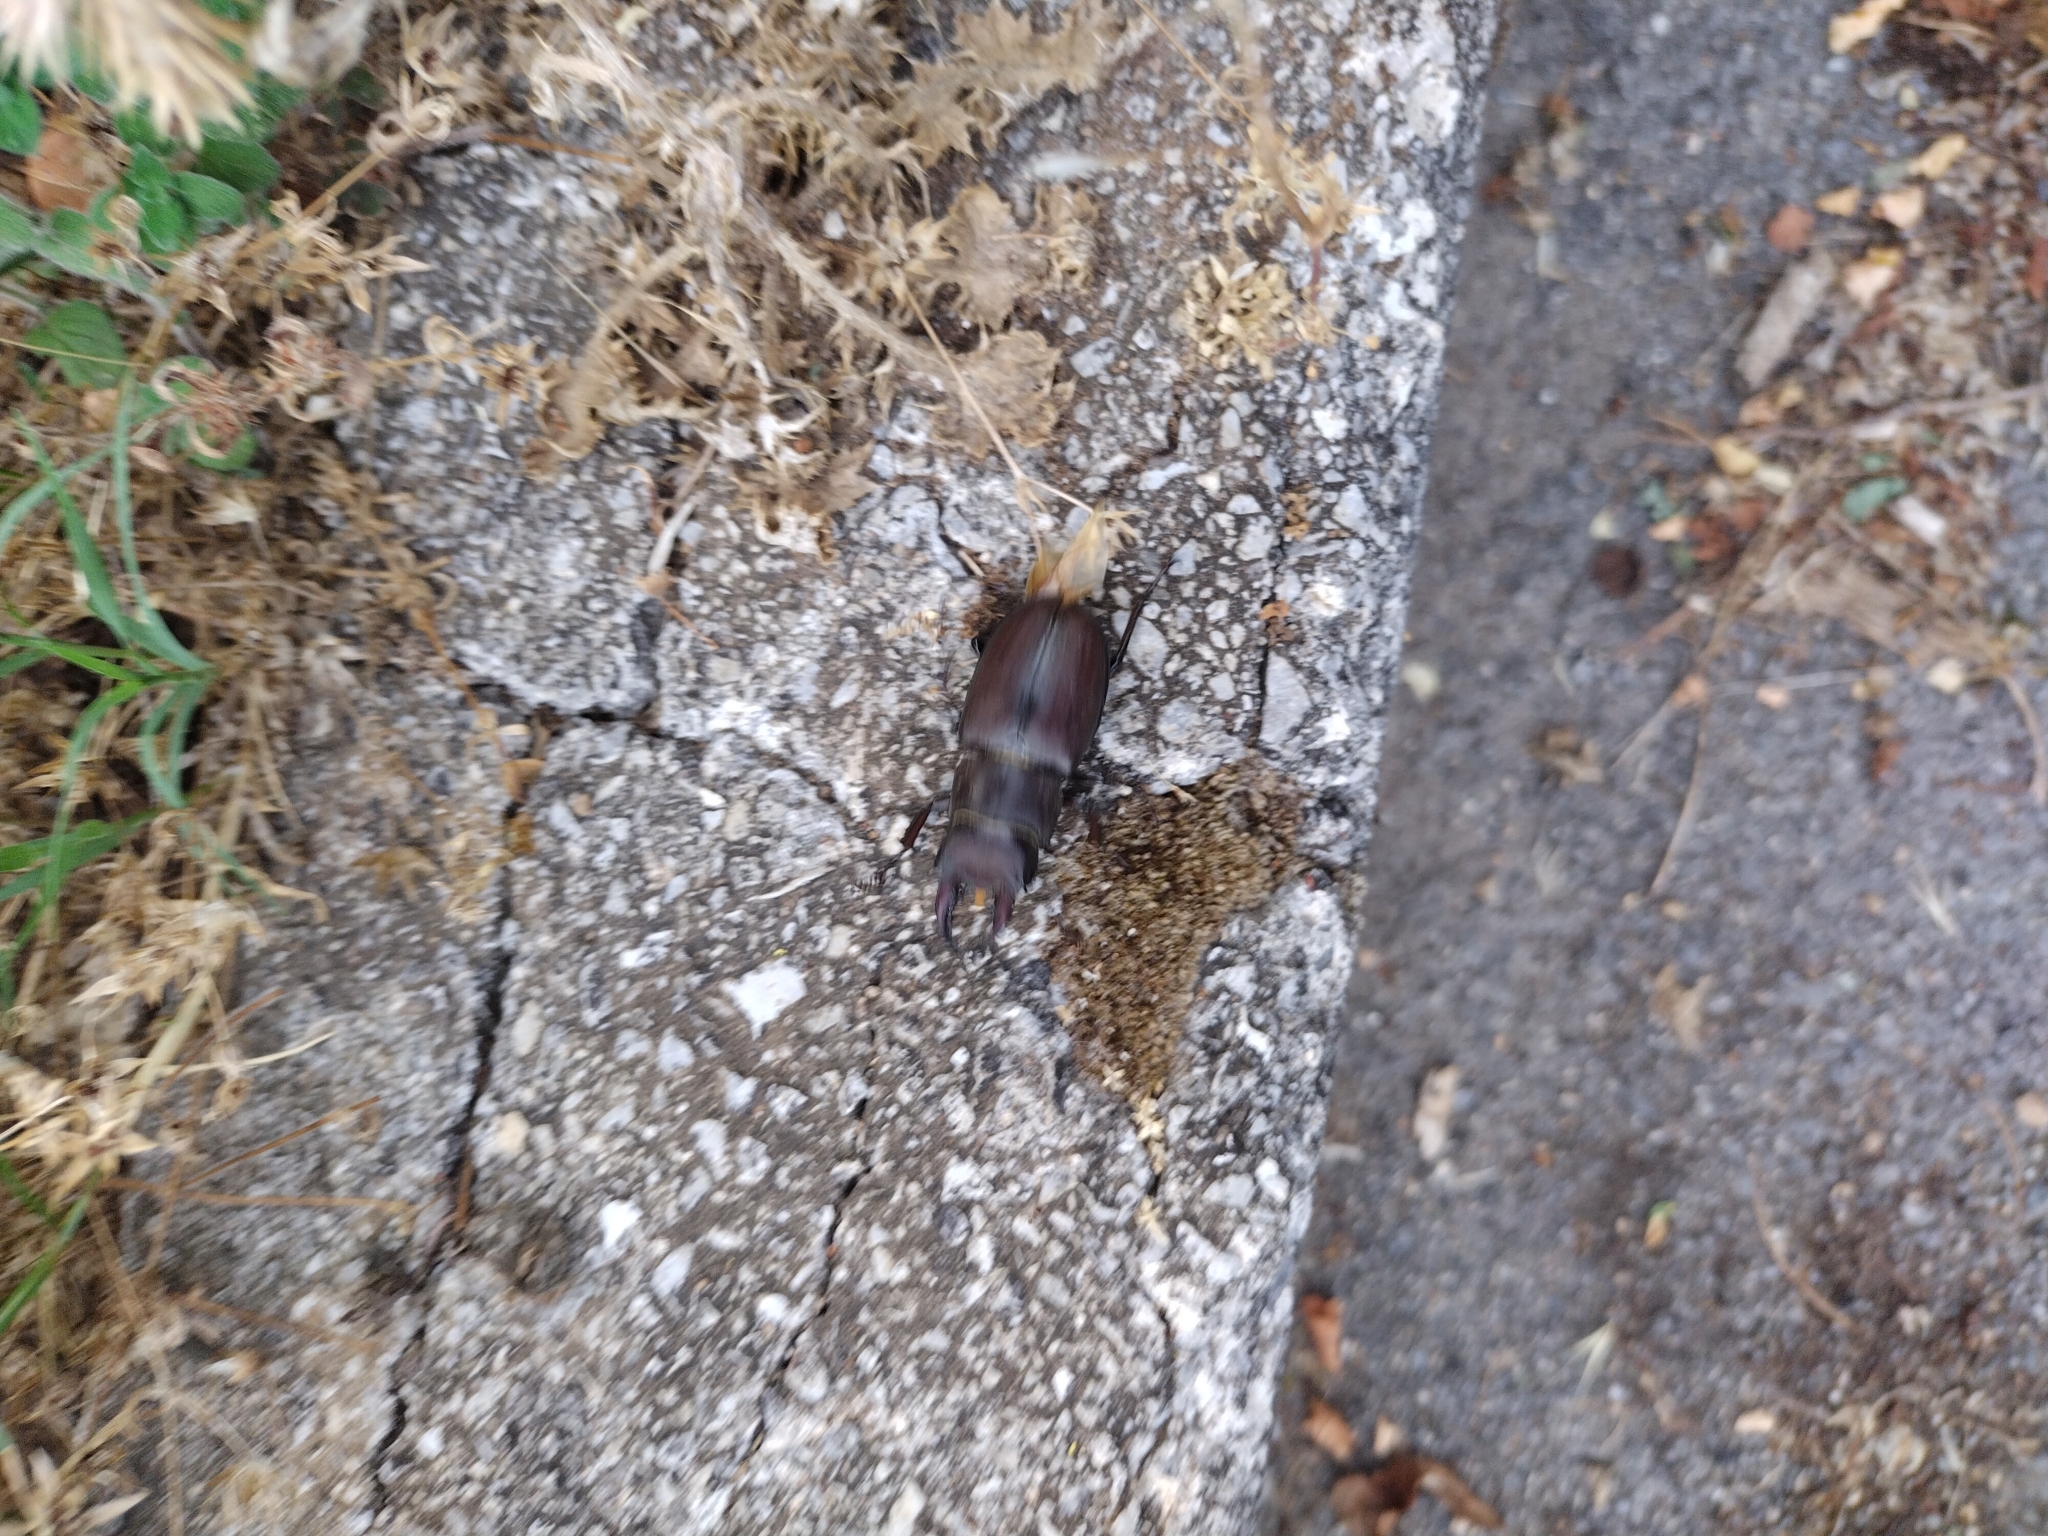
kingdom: Animalia
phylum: Arthropoda
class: Insecta
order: Coleoptera
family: Lucanidae
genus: Lucanus
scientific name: Lucanus tetraodon
